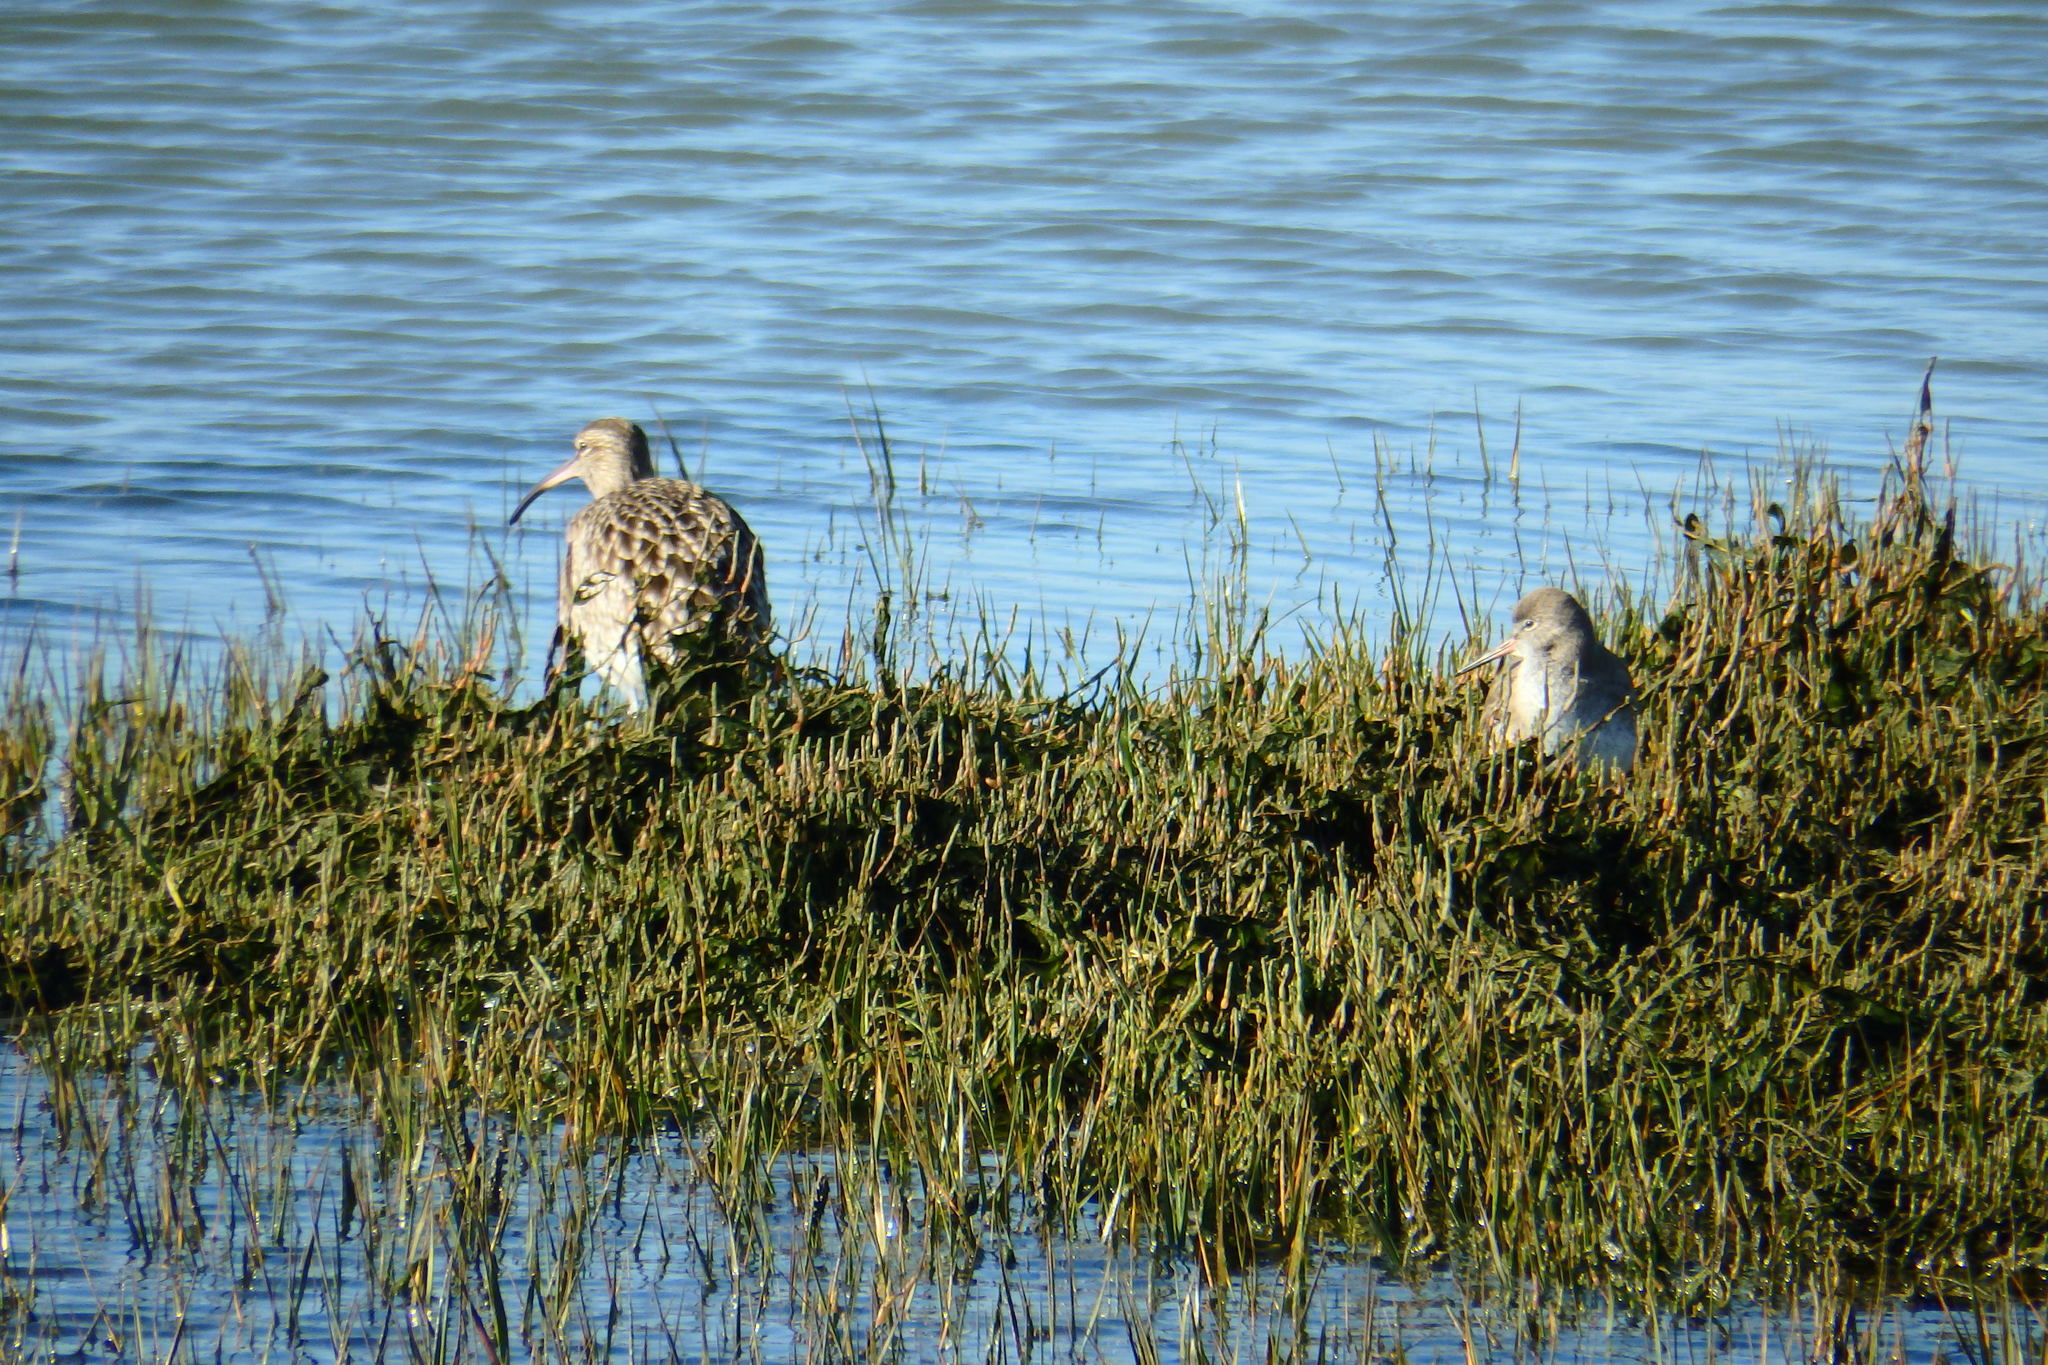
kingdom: Animalia
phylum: Chordata
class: Aves
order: Charadriiformes
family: Scolopacidae
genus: Tringa
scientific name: Tringa totanus
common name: Common redshank
